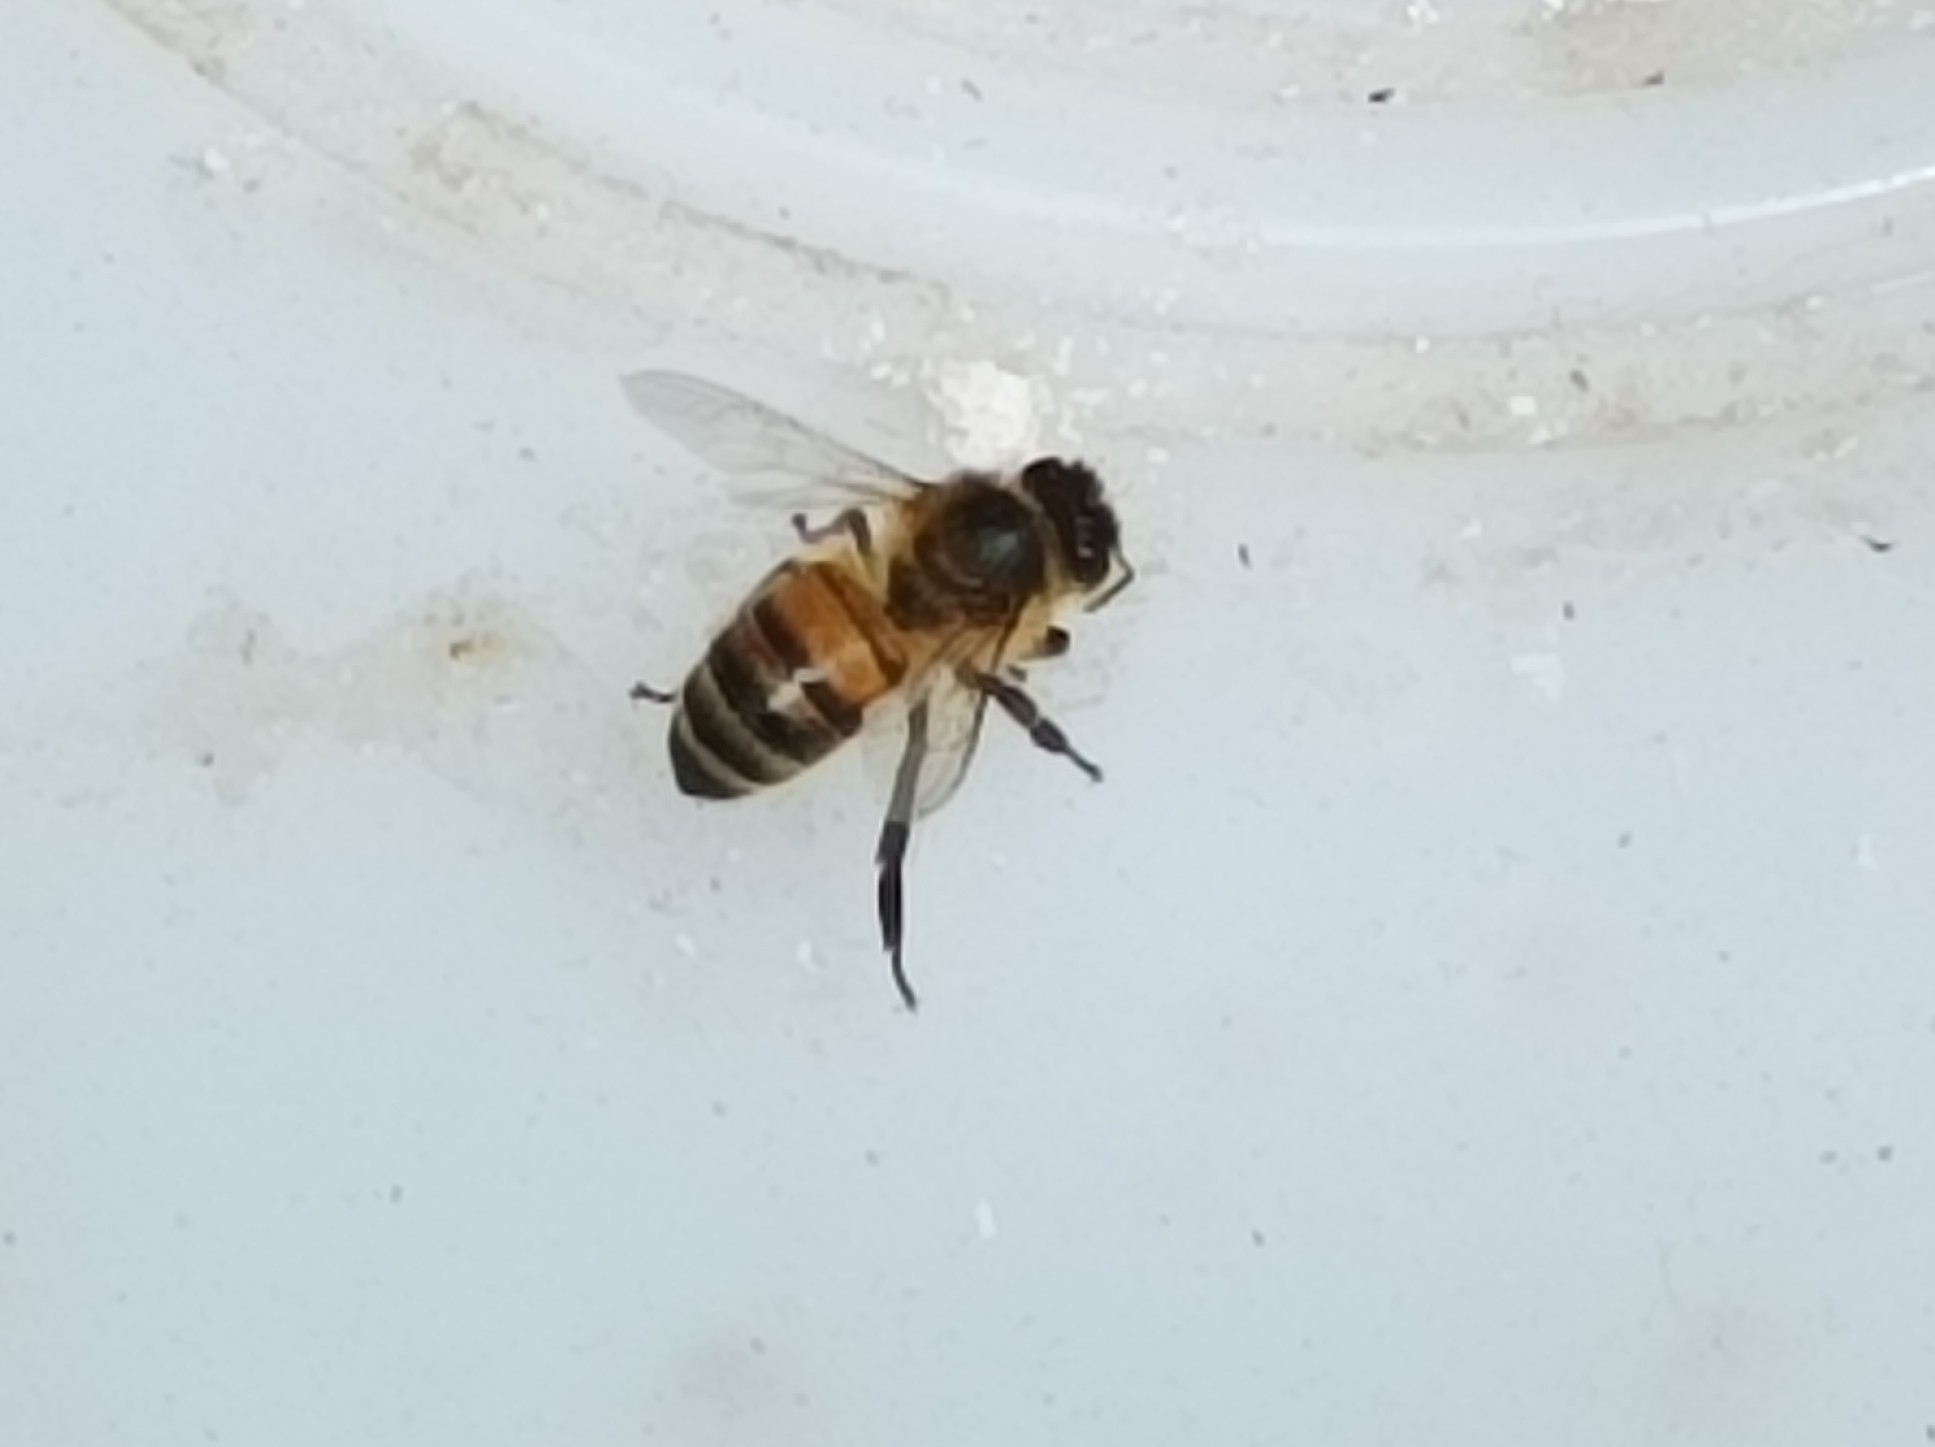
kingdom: Animalia
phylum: Arthropoda
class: Insecta
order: Hymenoptera
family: Apidae
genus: Apis
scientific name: Apis mellifera
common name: Honey bee
